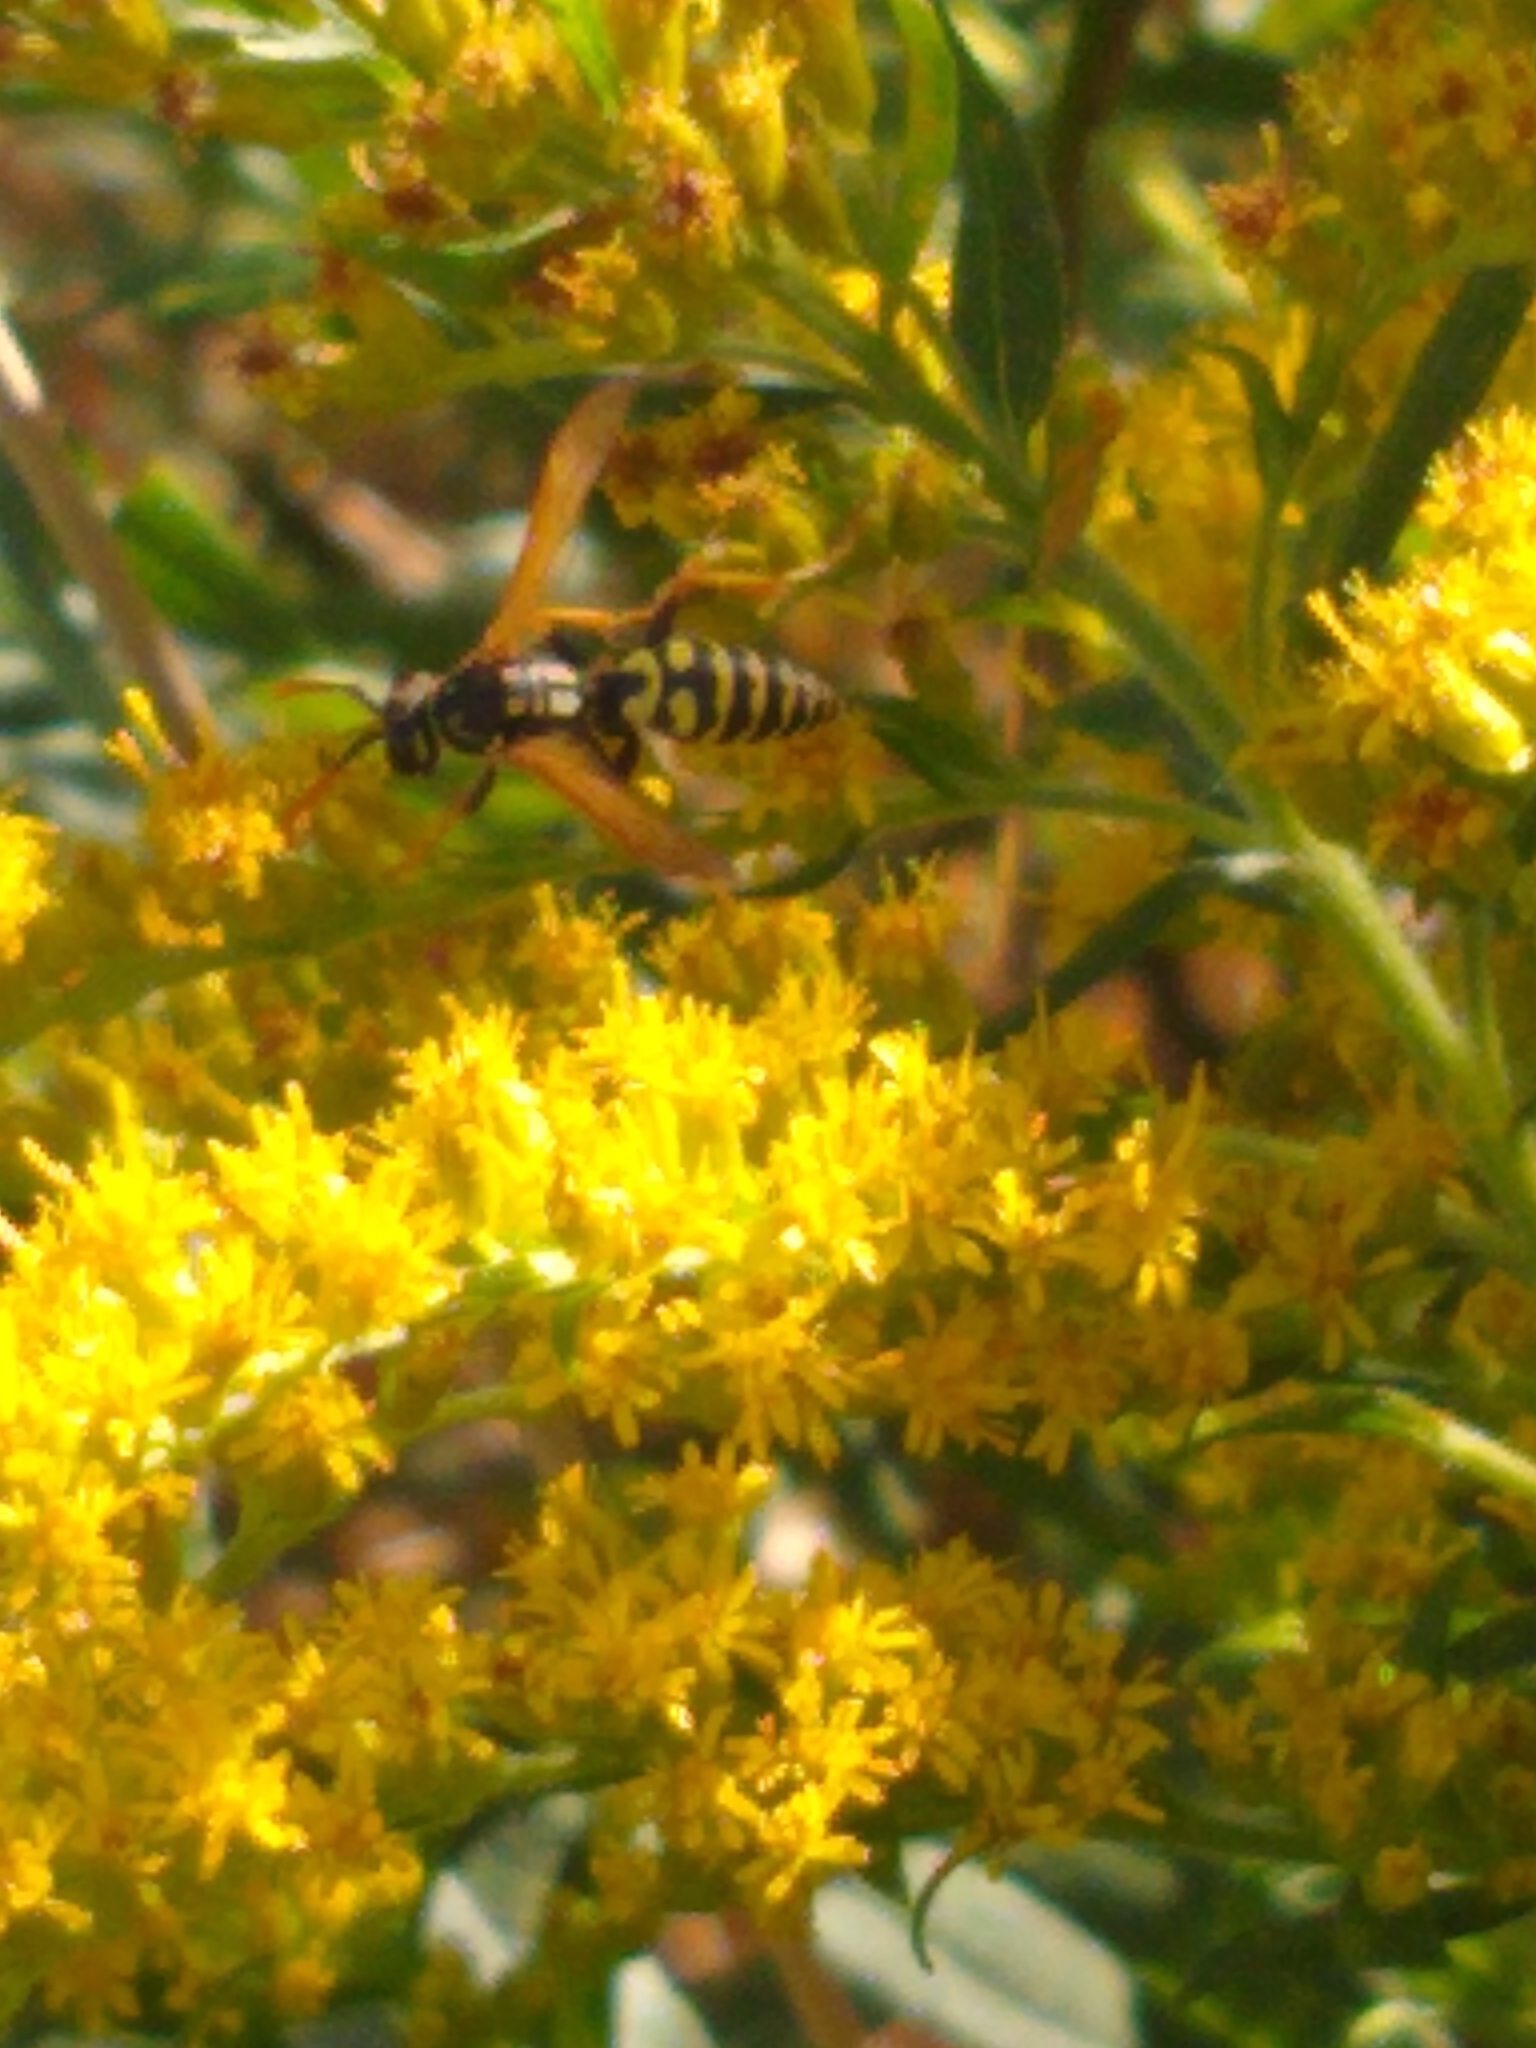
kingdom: Animalia
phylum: Arthropoda
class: Insecta
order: Hymenoptera
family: Eumenidae
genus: Polistes
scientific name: Polistes dominula
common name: Paper wasp
